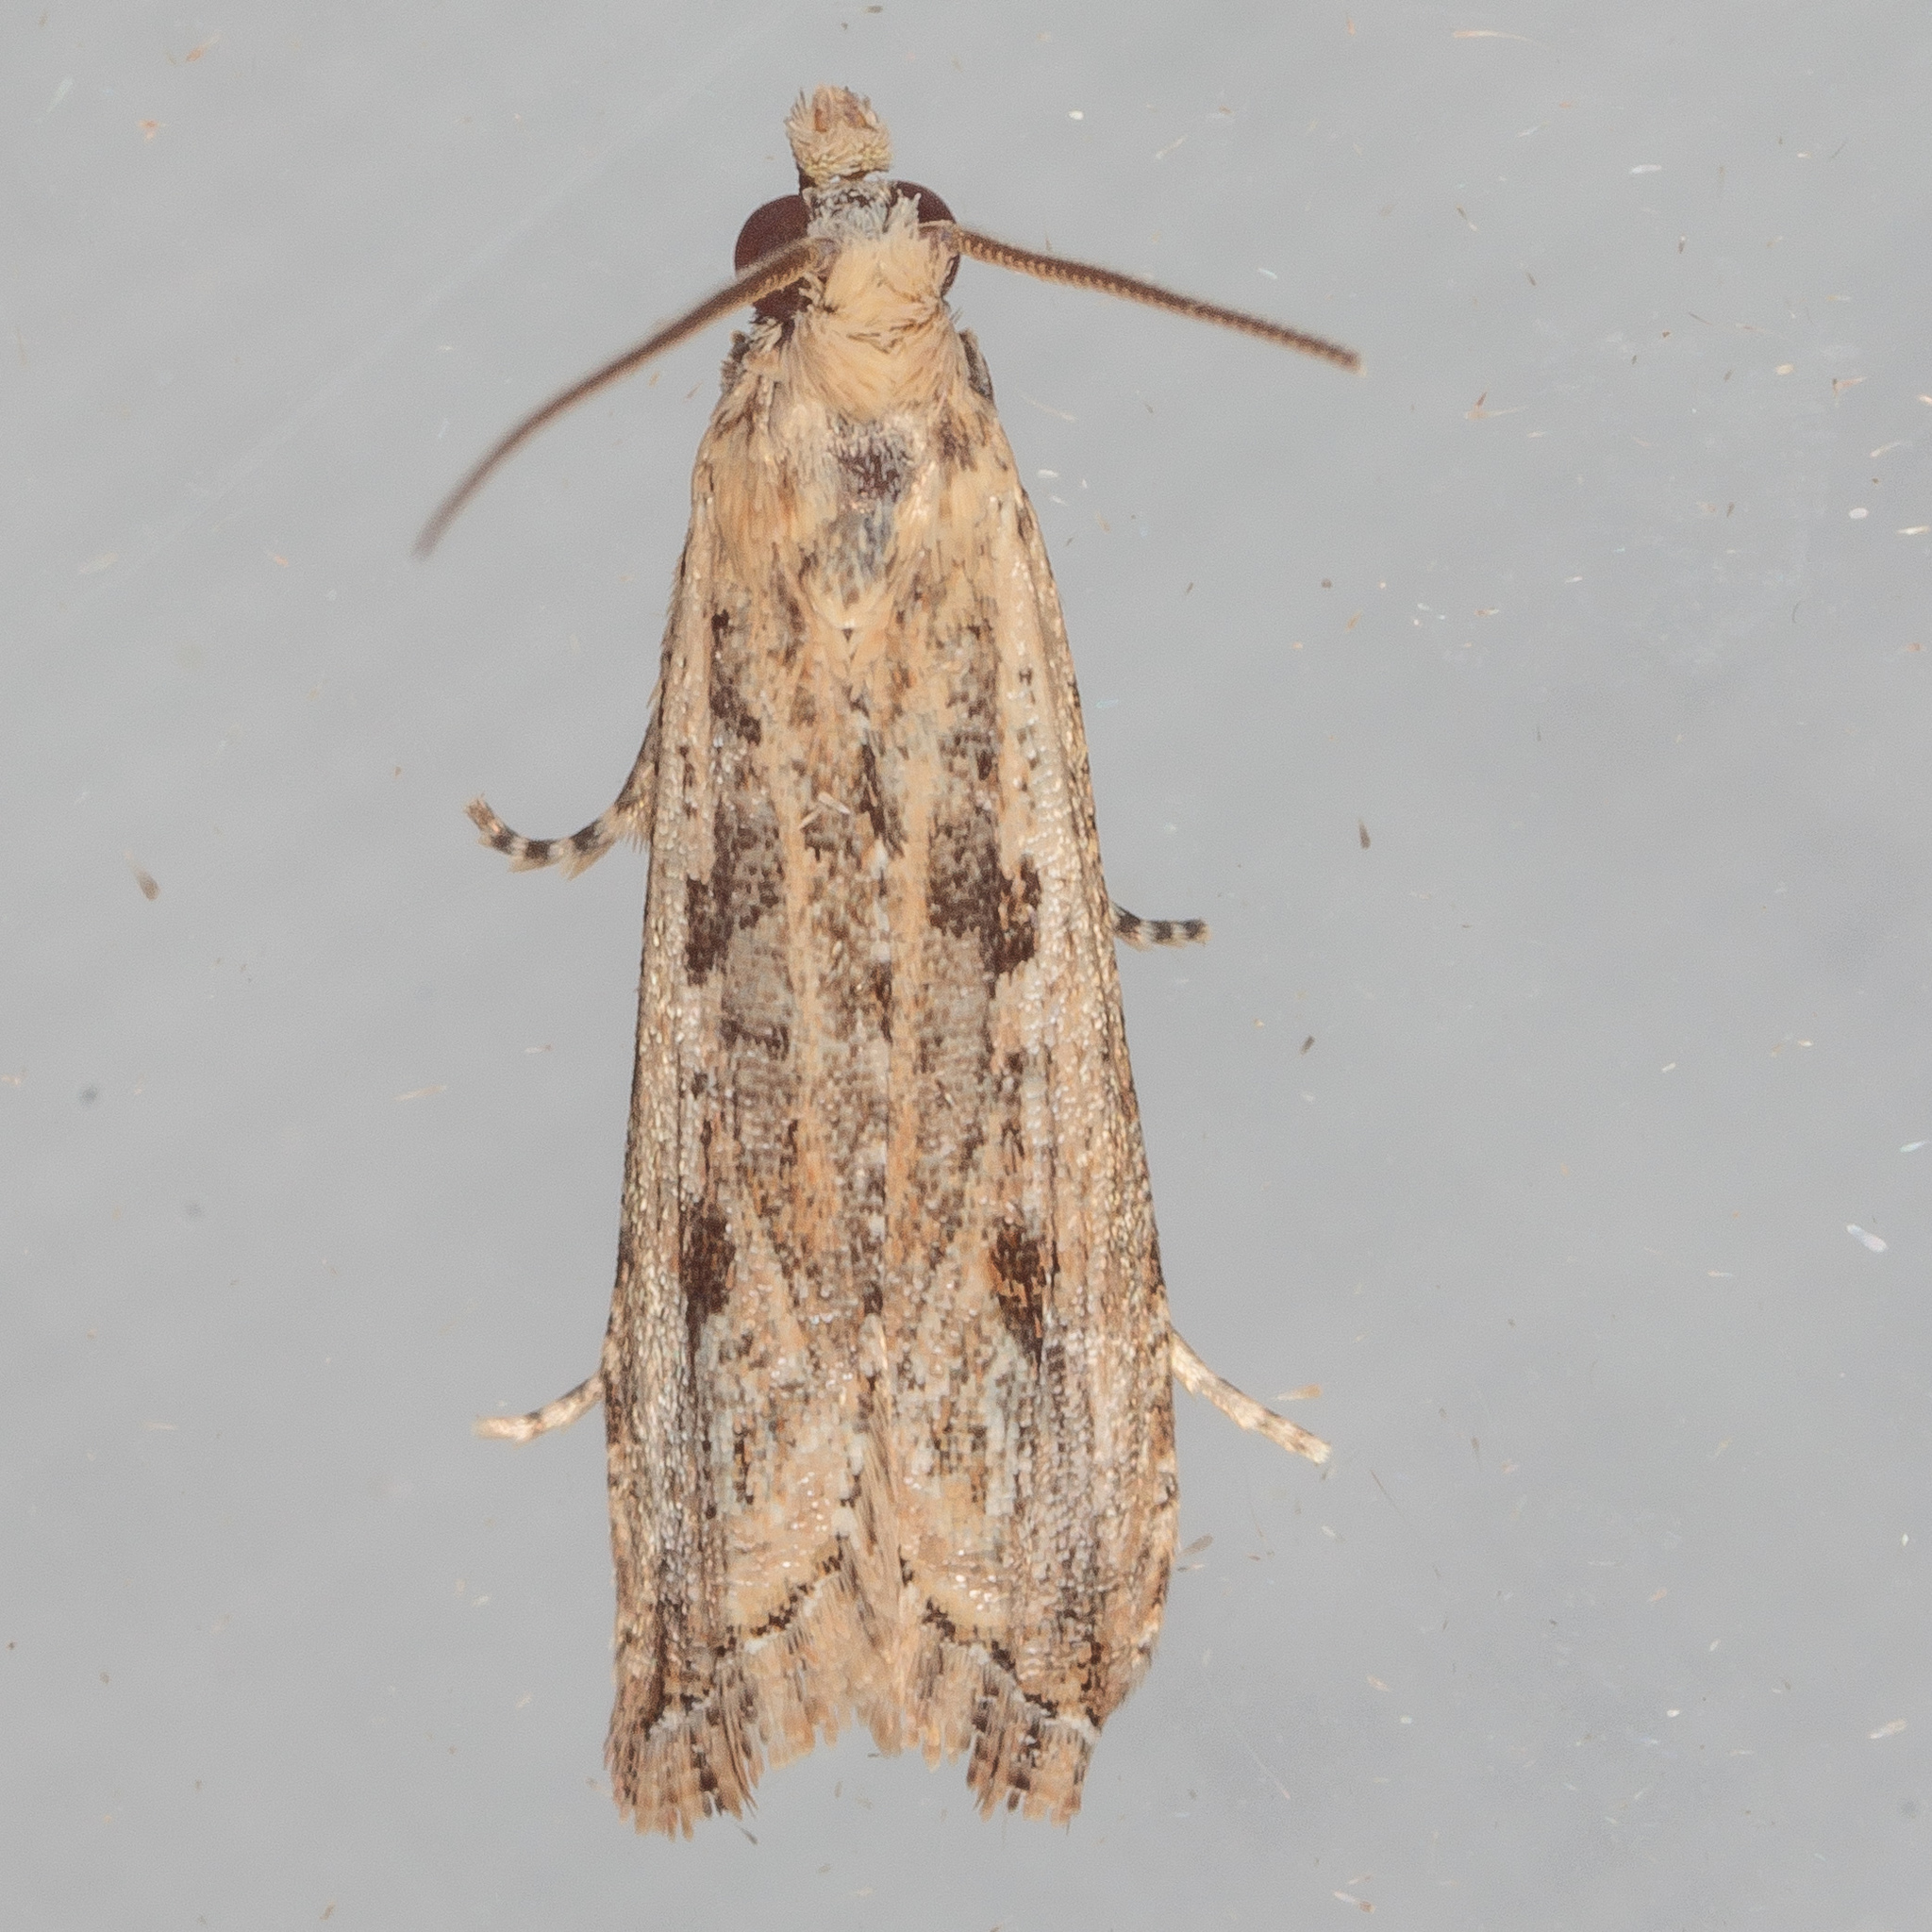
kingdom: Animalia
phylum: Arthropoda
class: Insecta
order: Lepidoptera
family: Tortricidae
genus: Bactra
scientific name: Bactra verutana
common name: Javelin moth
